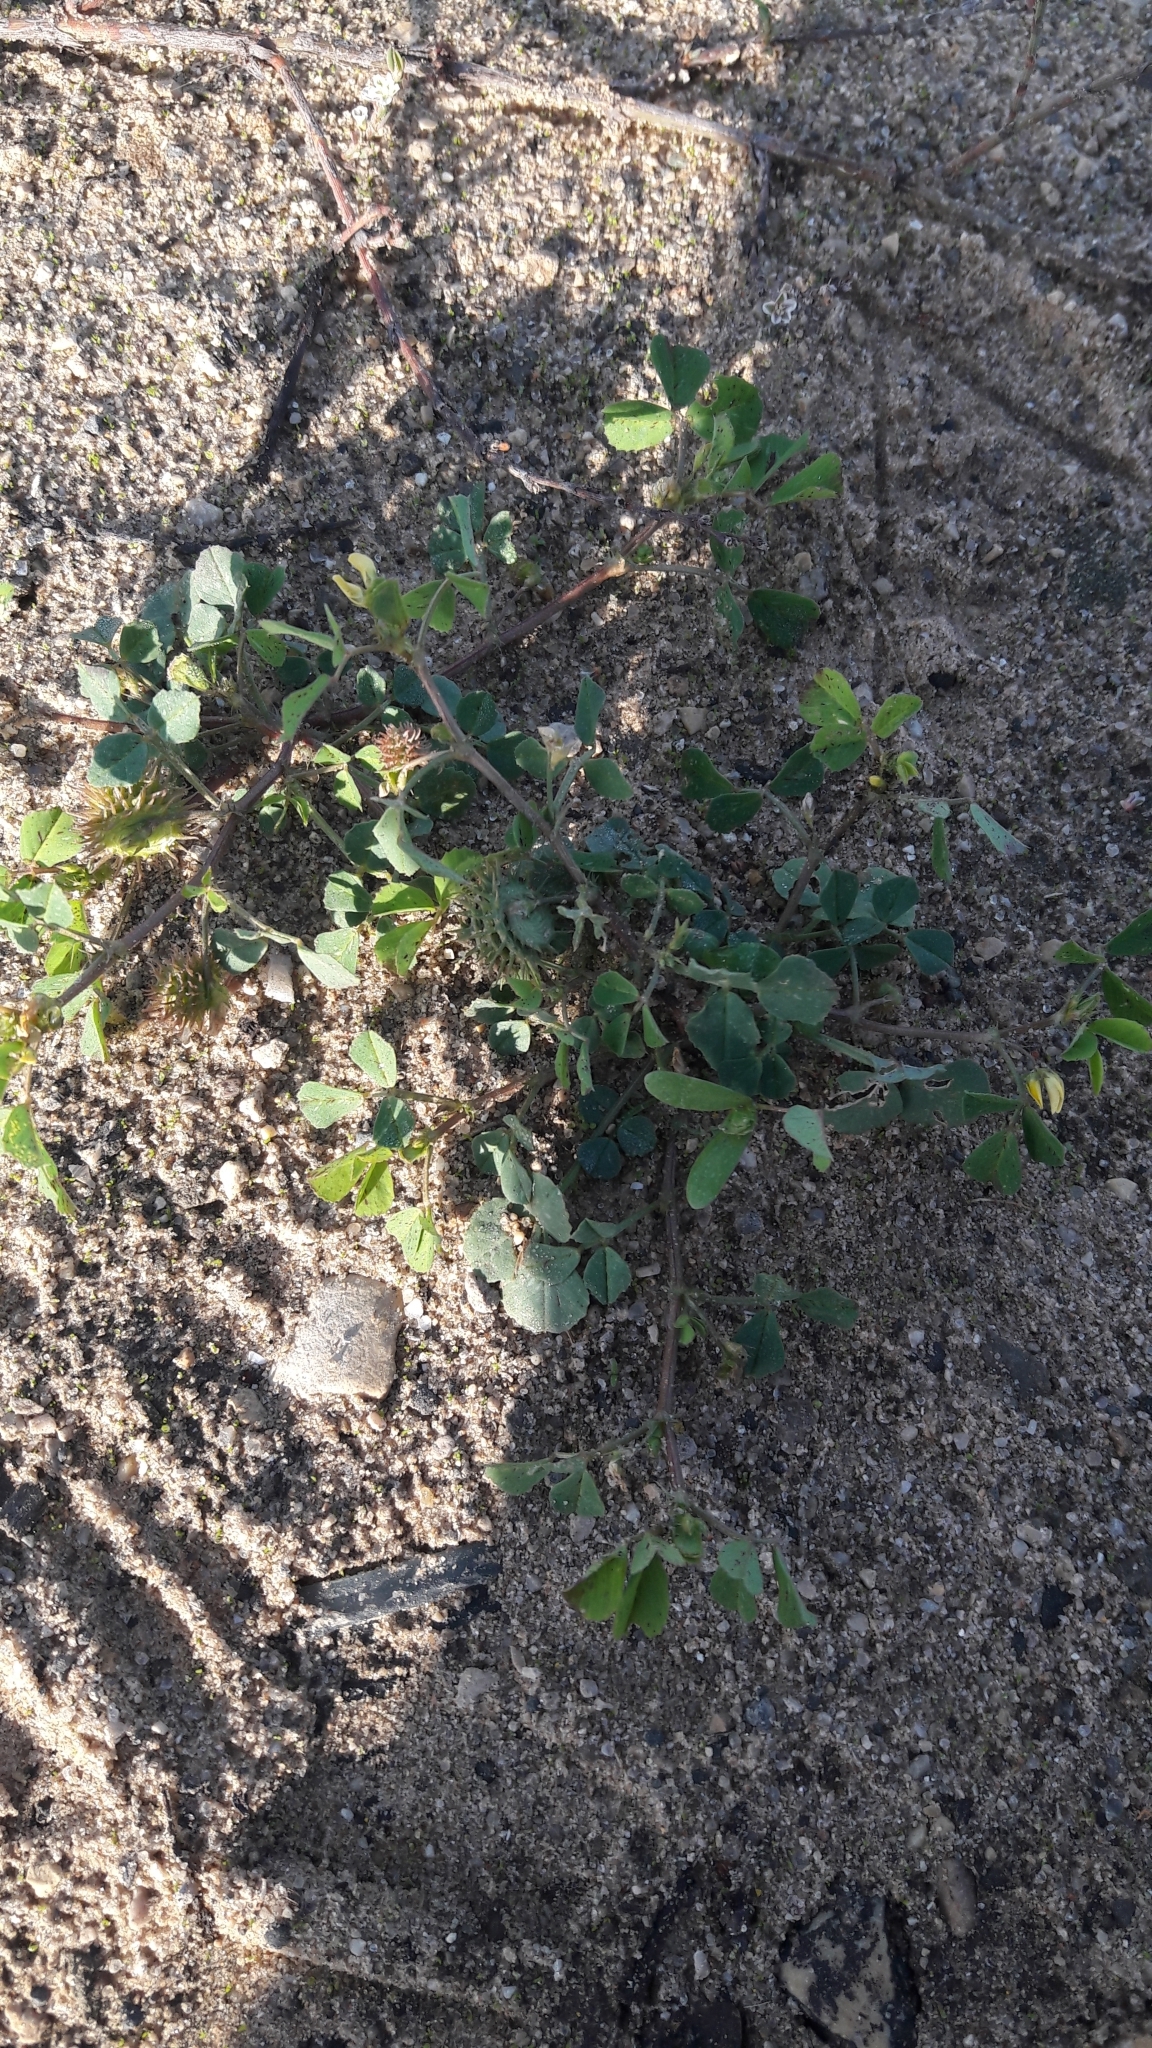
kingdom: Plantae
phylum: Tracheophyta
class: Magnoliopsida
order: Fabales
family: Fabaceae
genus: Medicago
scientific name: Medicago polymorpha
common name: Burclover
